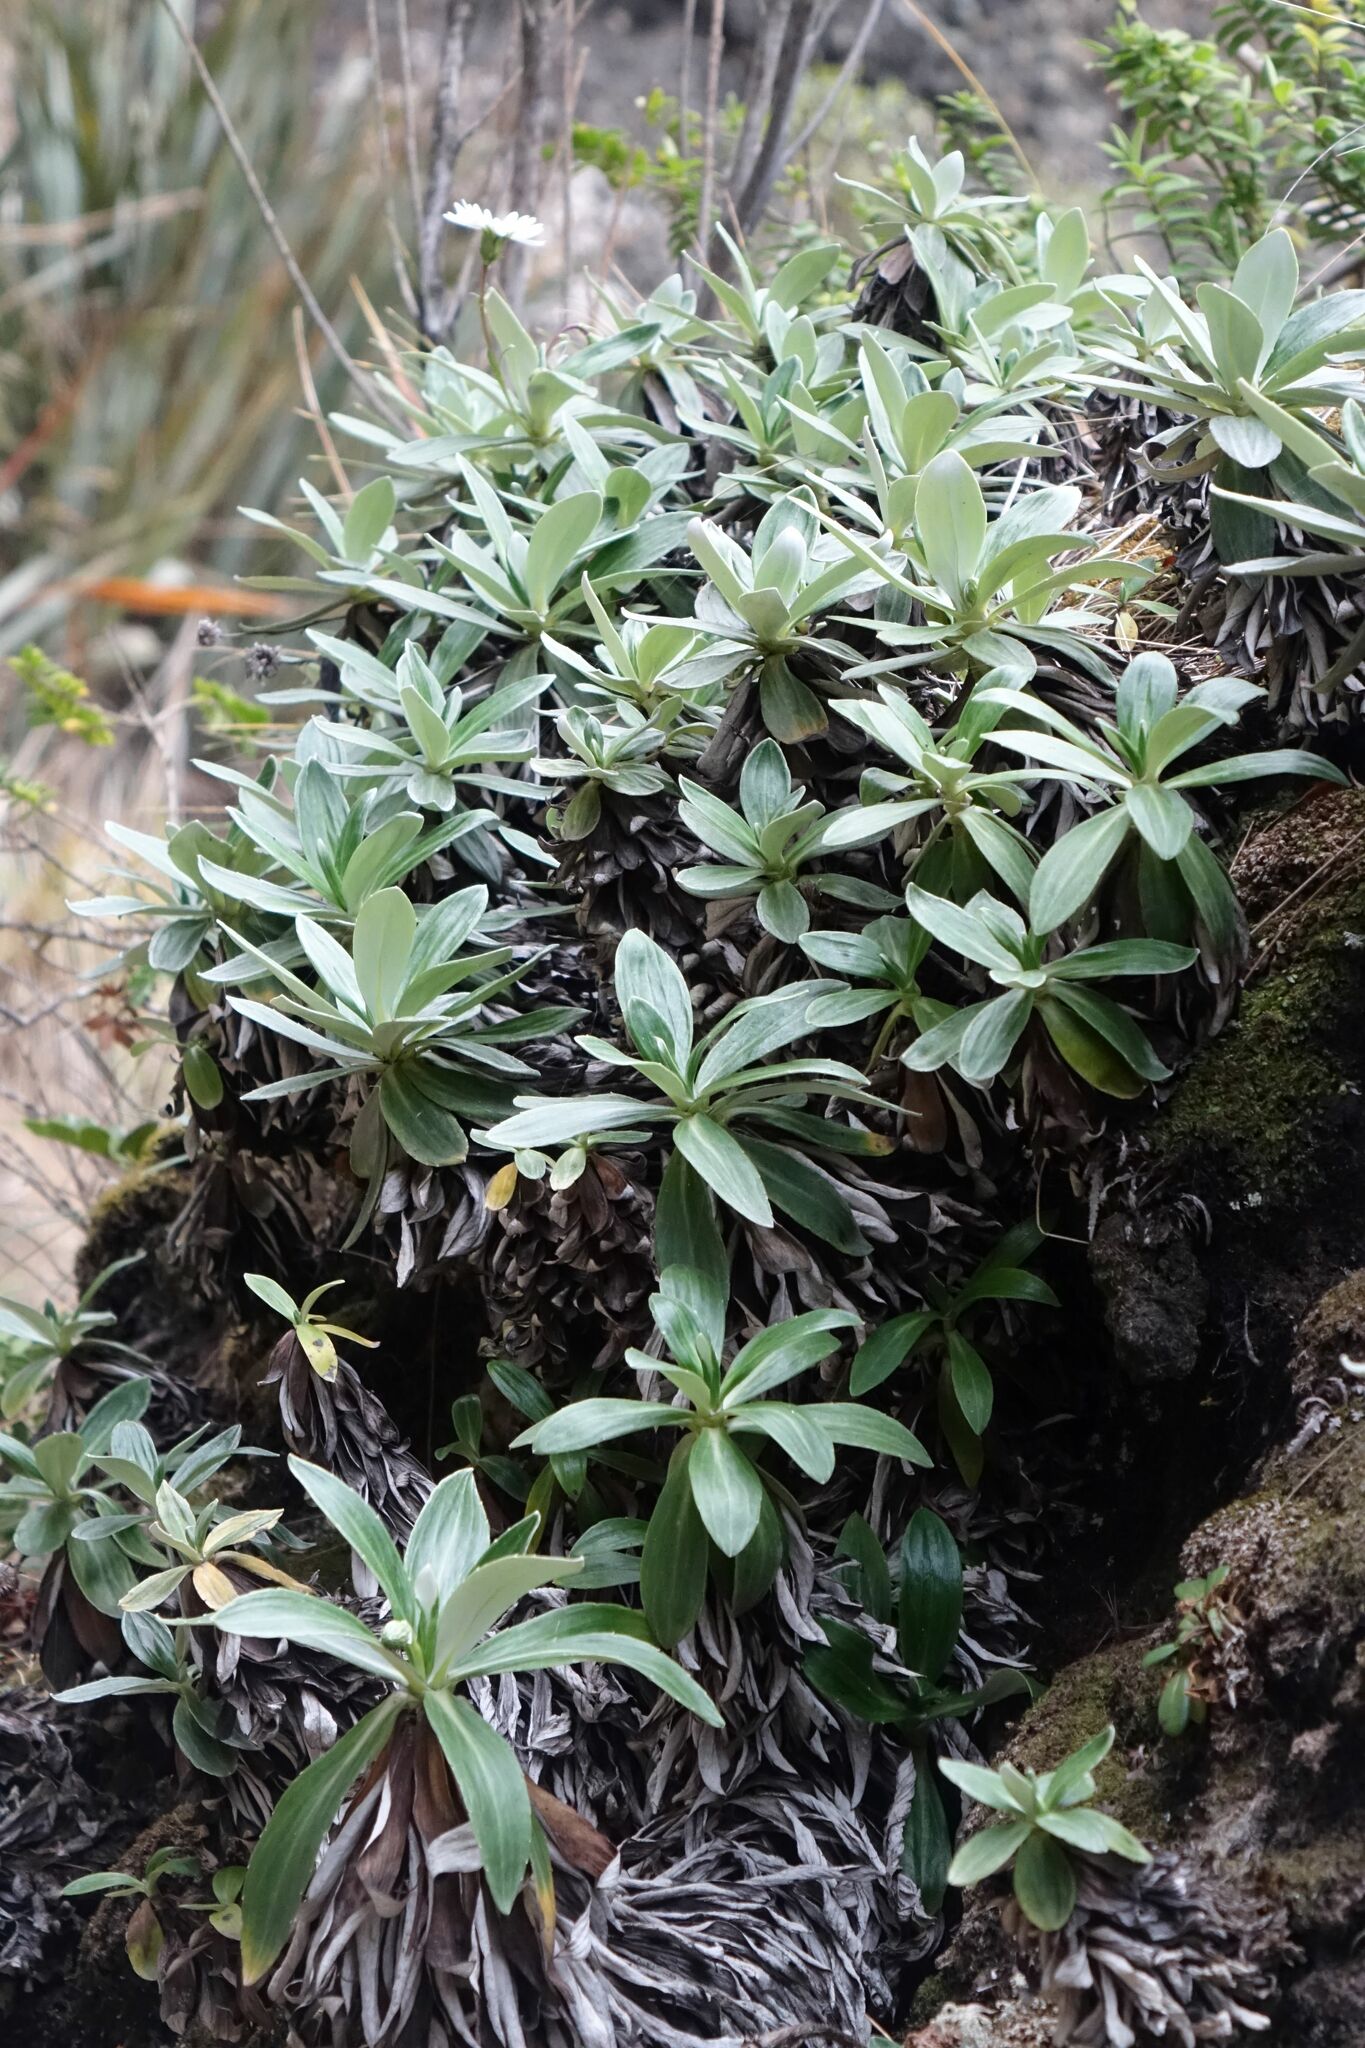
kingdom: Plantae
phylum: Tracheophyta
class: Magnoliopsida
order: Asterales
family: Asteraceae
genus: Celmisia
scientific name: Celmisia lindsayi
